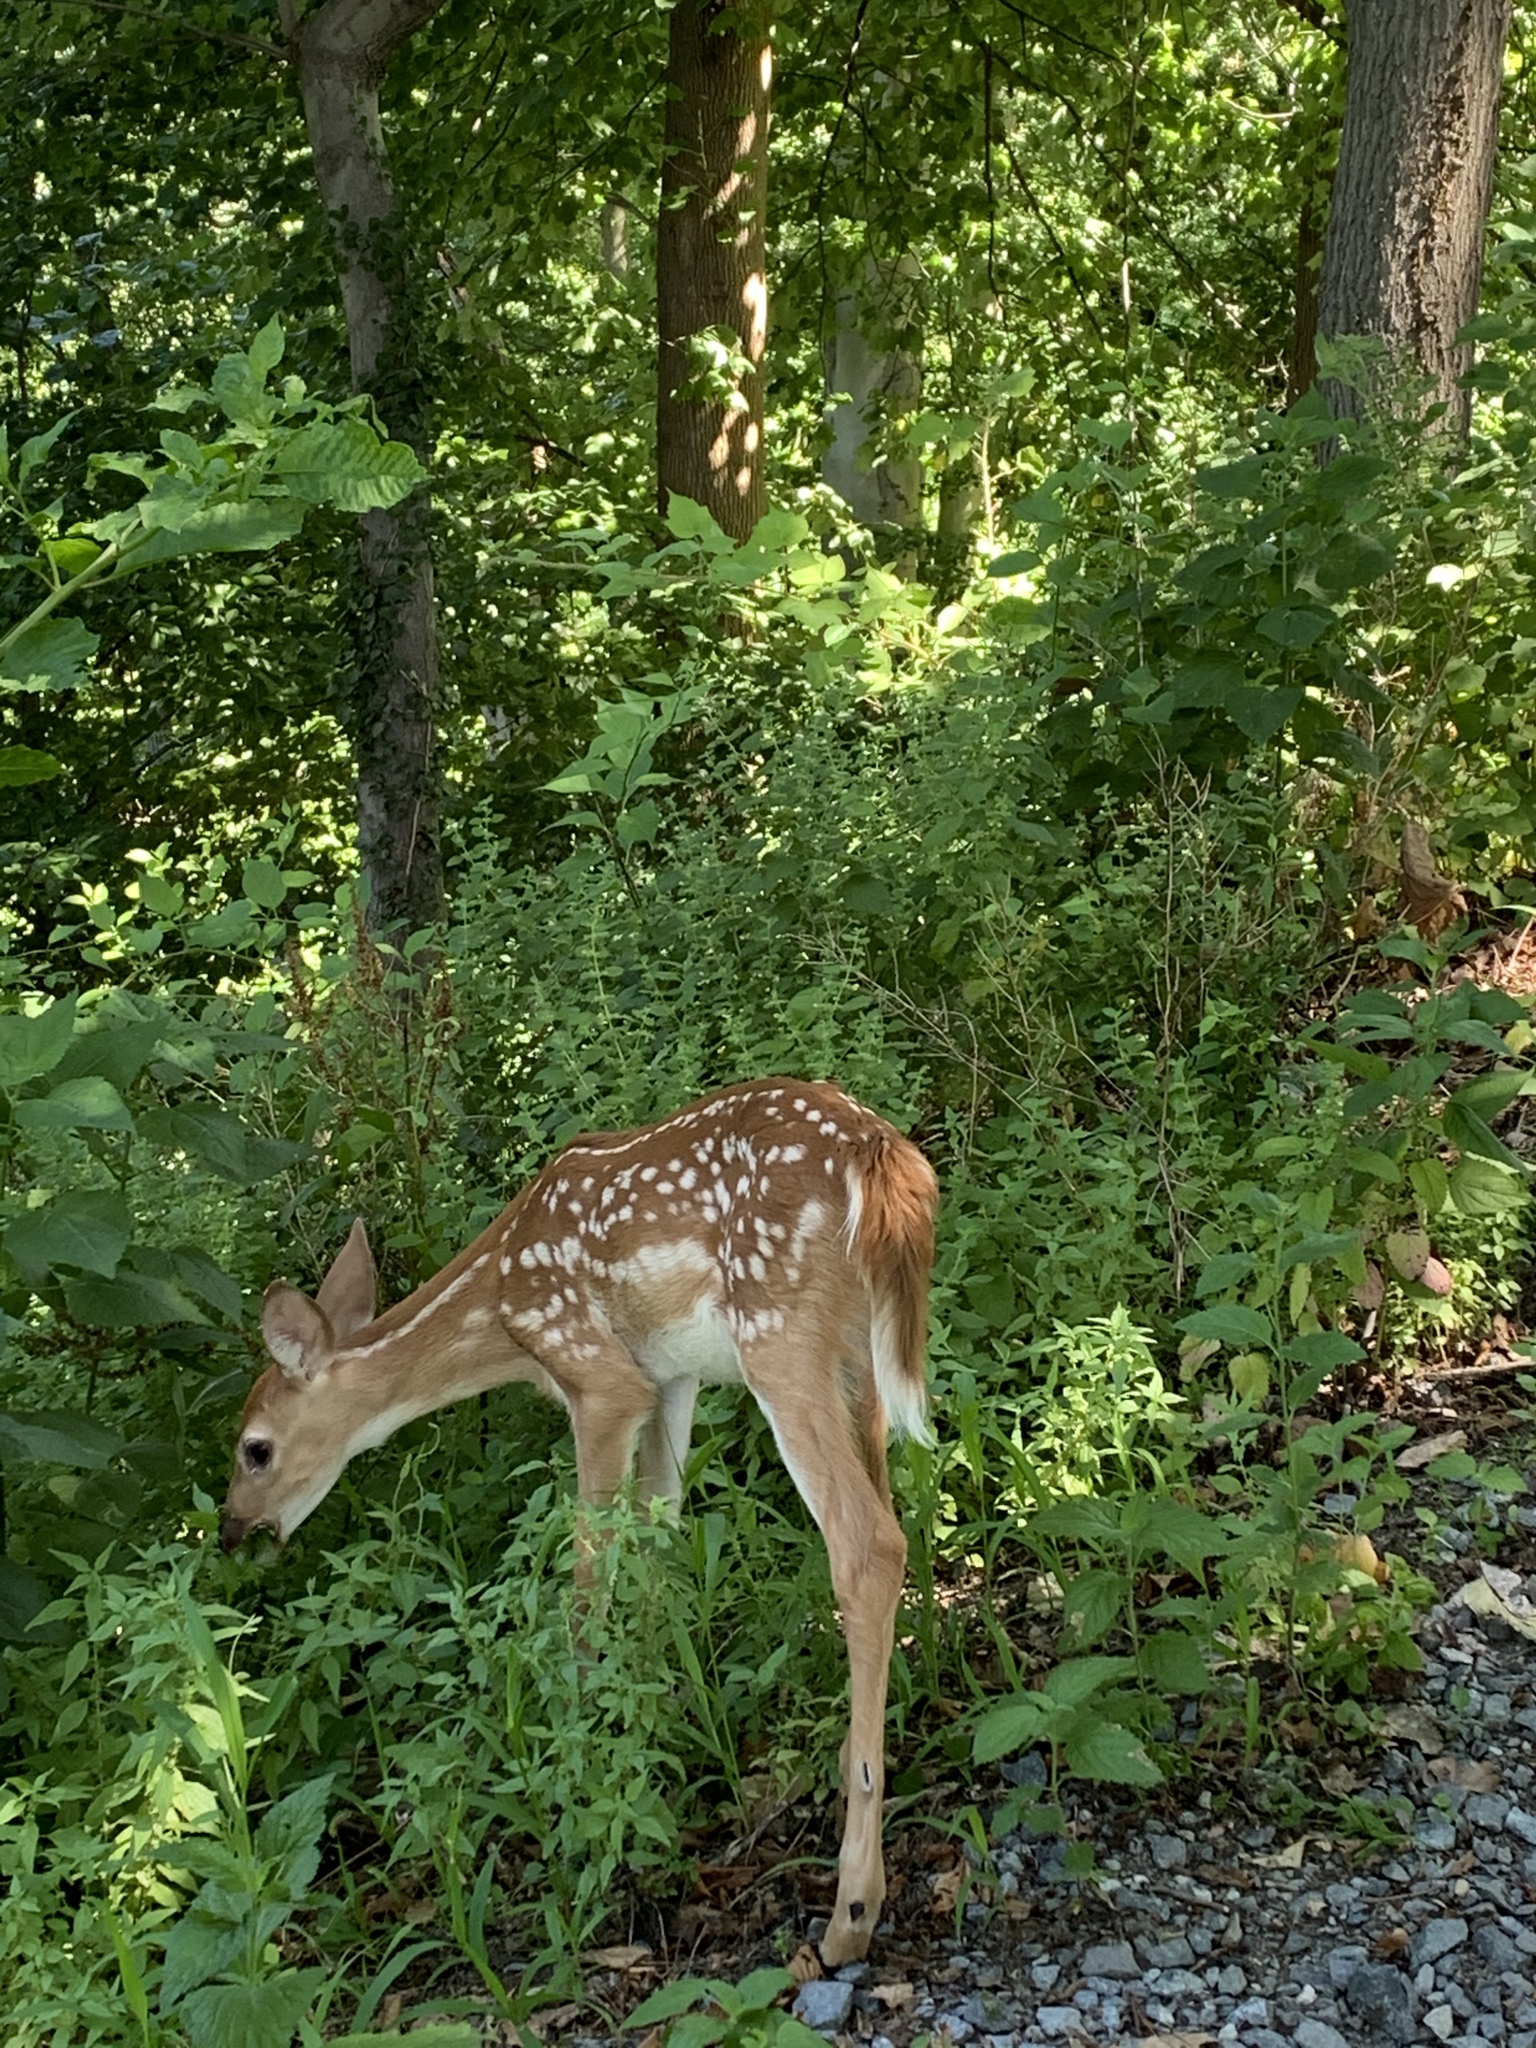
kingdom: Animalia
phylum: Chordata
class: Mammalia
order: Artiodactyla
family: Cervidae
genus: Odocoileus
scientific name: Odocoileus virginianus
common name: White-tailed deer
